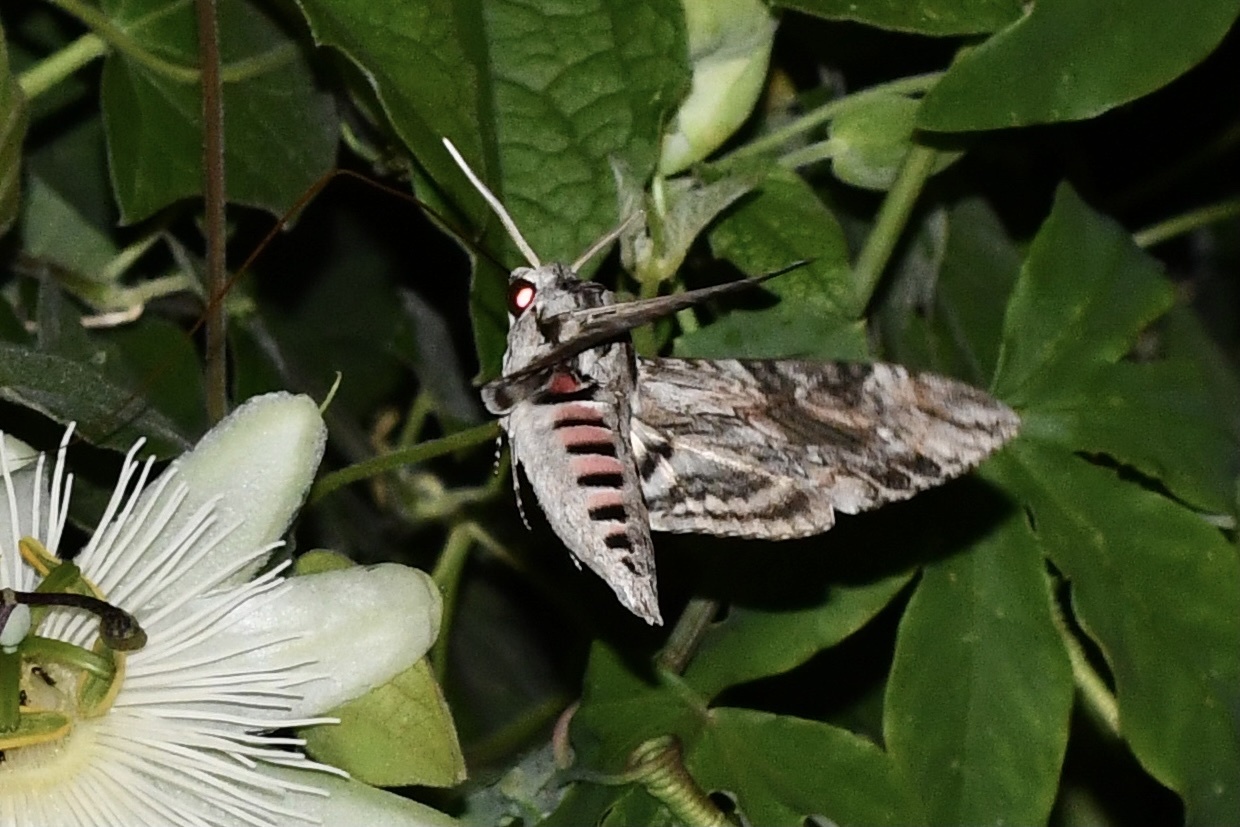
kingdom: Animalia
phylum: Arthropoda
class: Insecta
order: Lepidoptera
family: Sphingidae
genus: Agrius
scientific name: Agrius convolvuli
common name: Convolvulus hawkmoth
